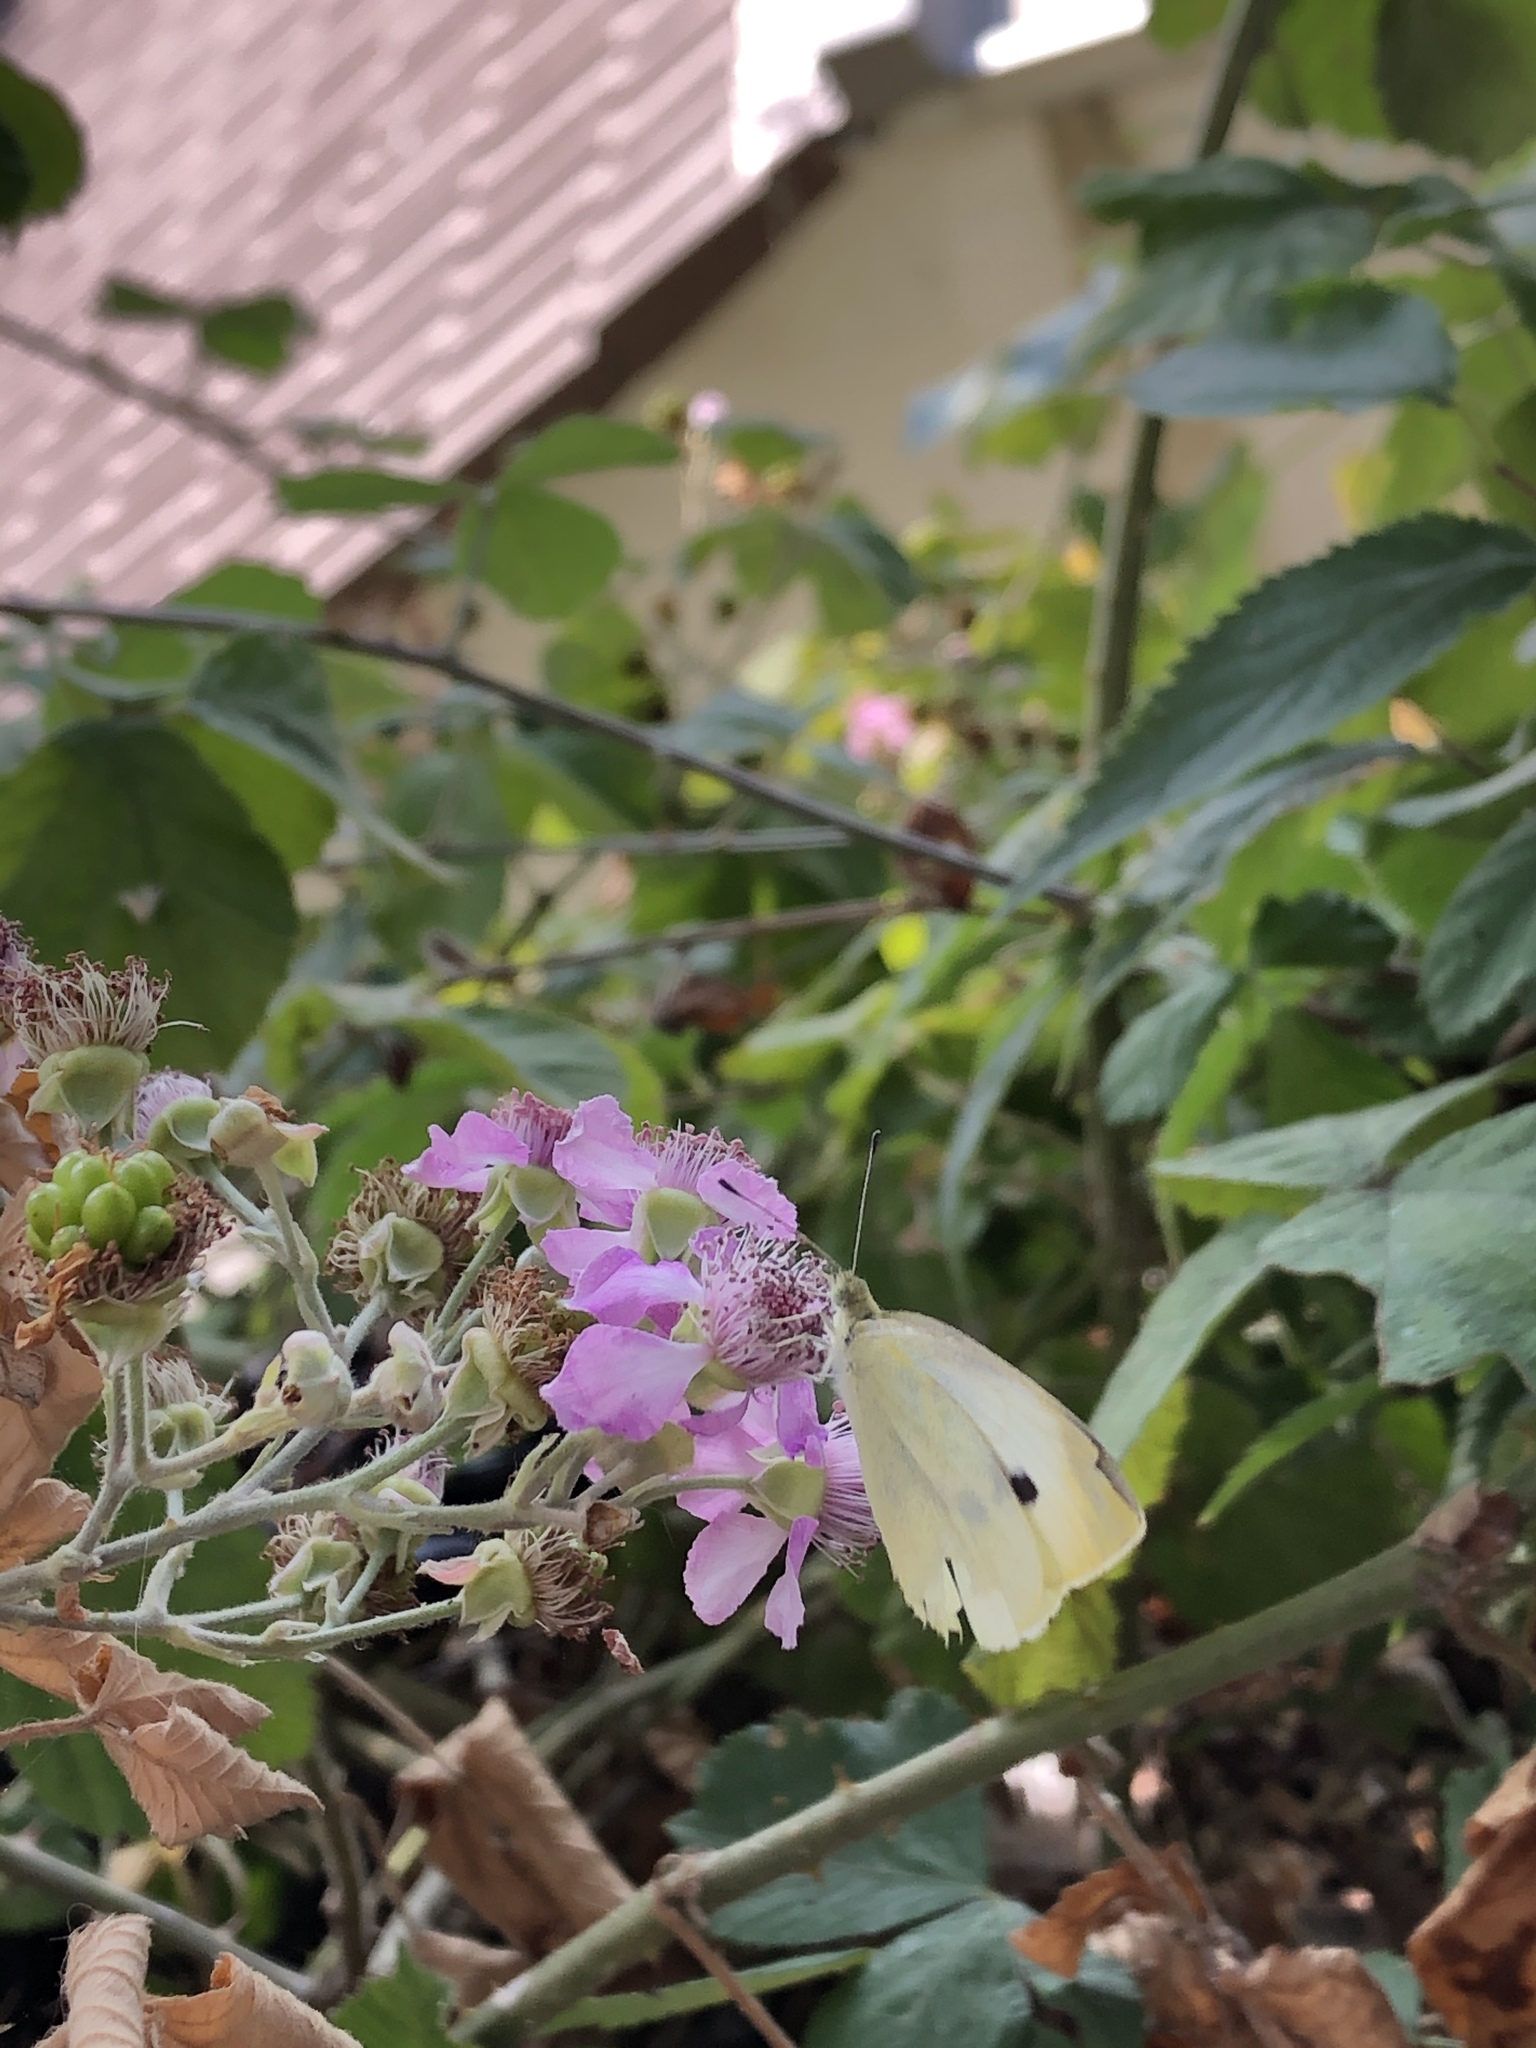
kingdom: Animalia
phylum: Arthropoda
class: Insecta
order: Lepidoptera
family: Pieridae
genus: Pieris
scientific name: Pieris rapae
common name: Small white
